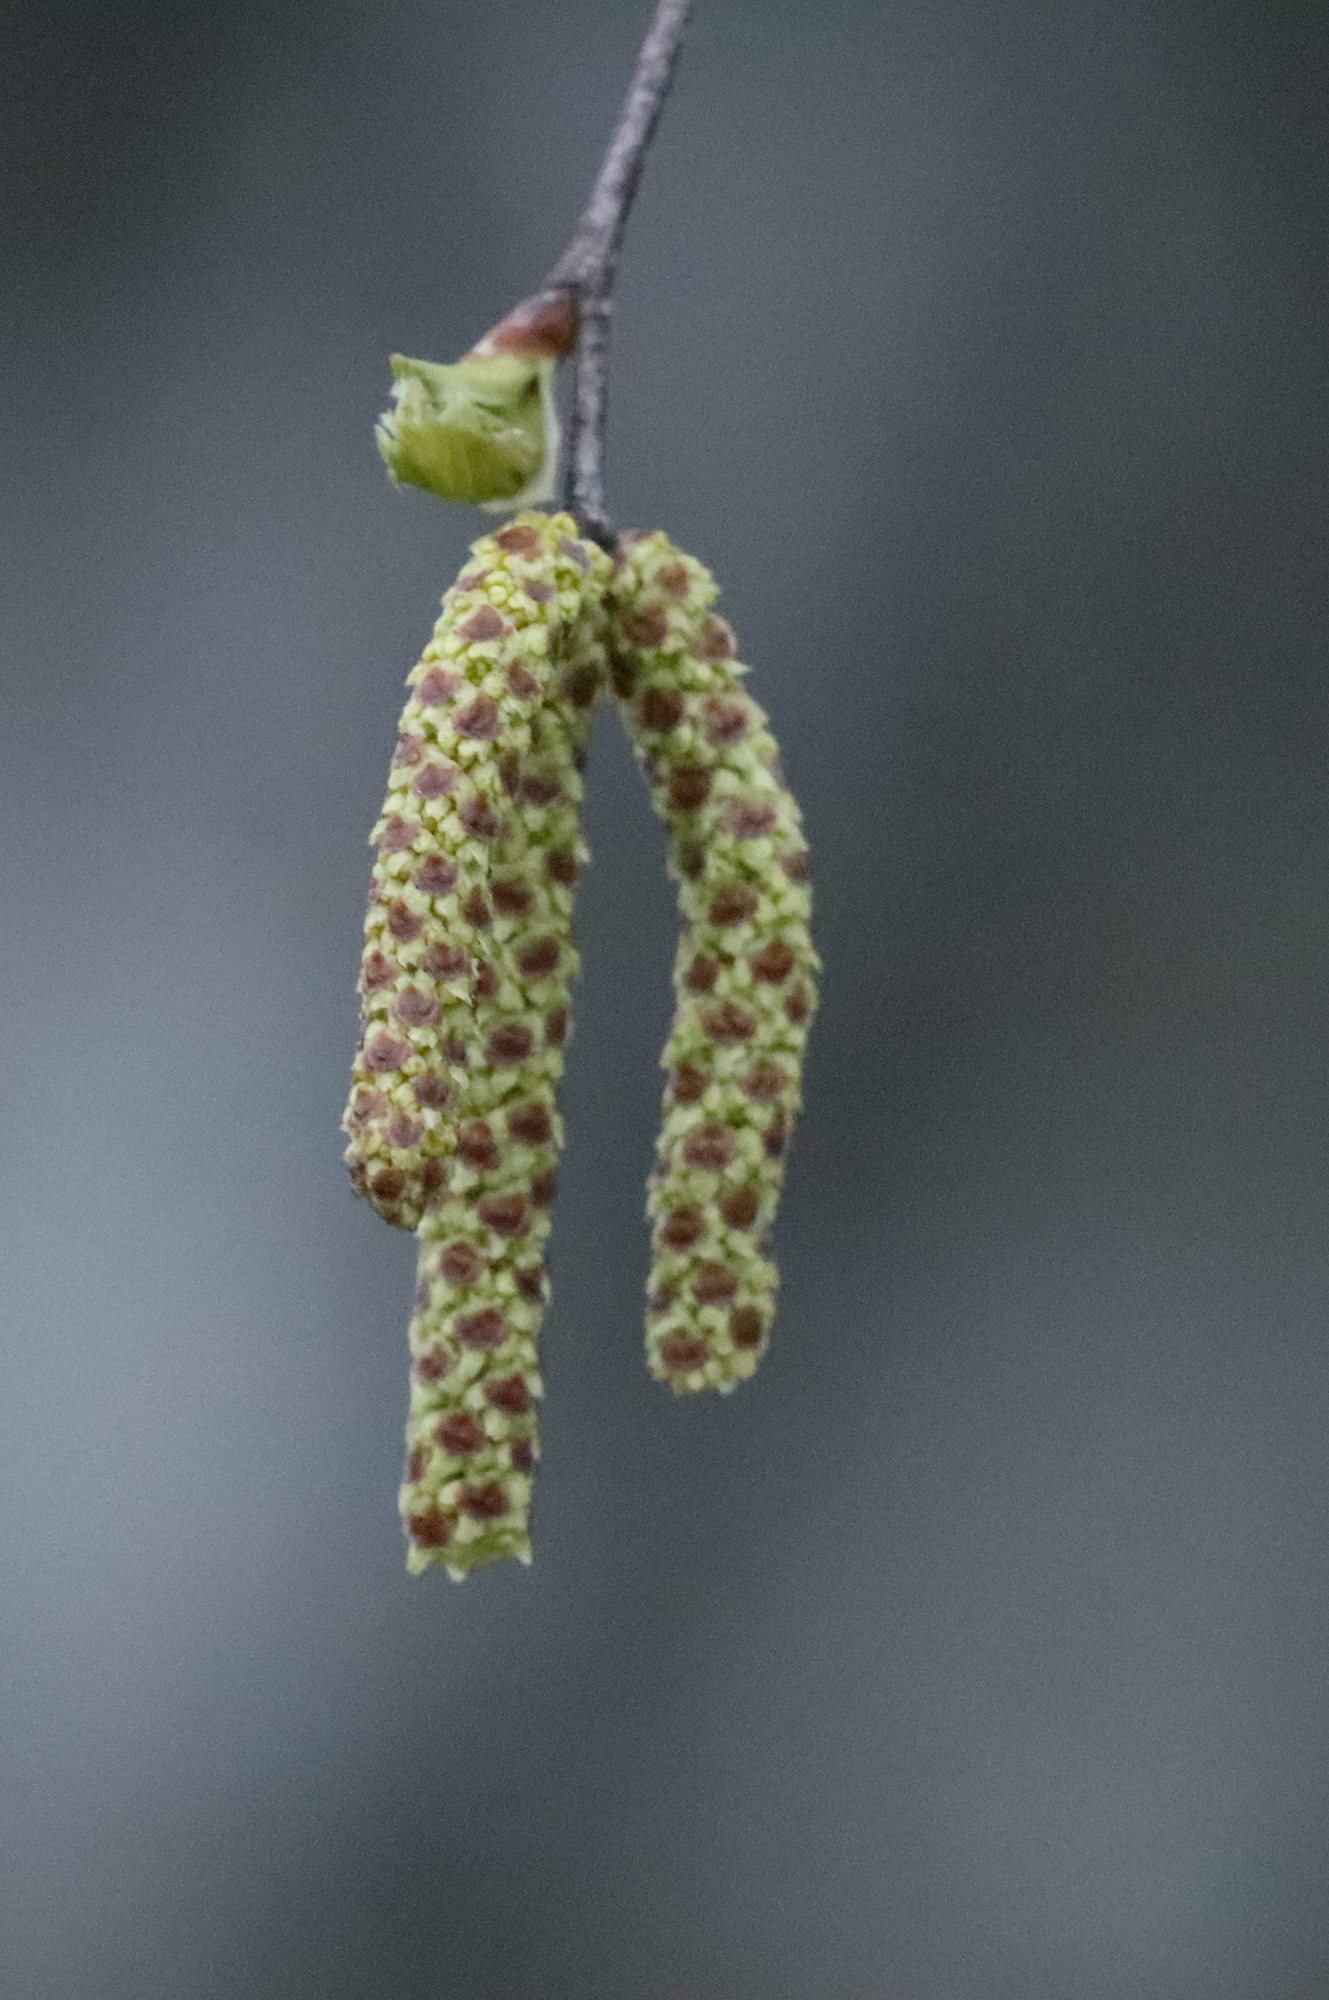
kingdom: Plantae
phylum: Tracheophyta
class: Magnoliopsida
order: Fagales
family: Betulaceae
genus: Betula
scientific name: Betula pendula
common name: Silver birch
